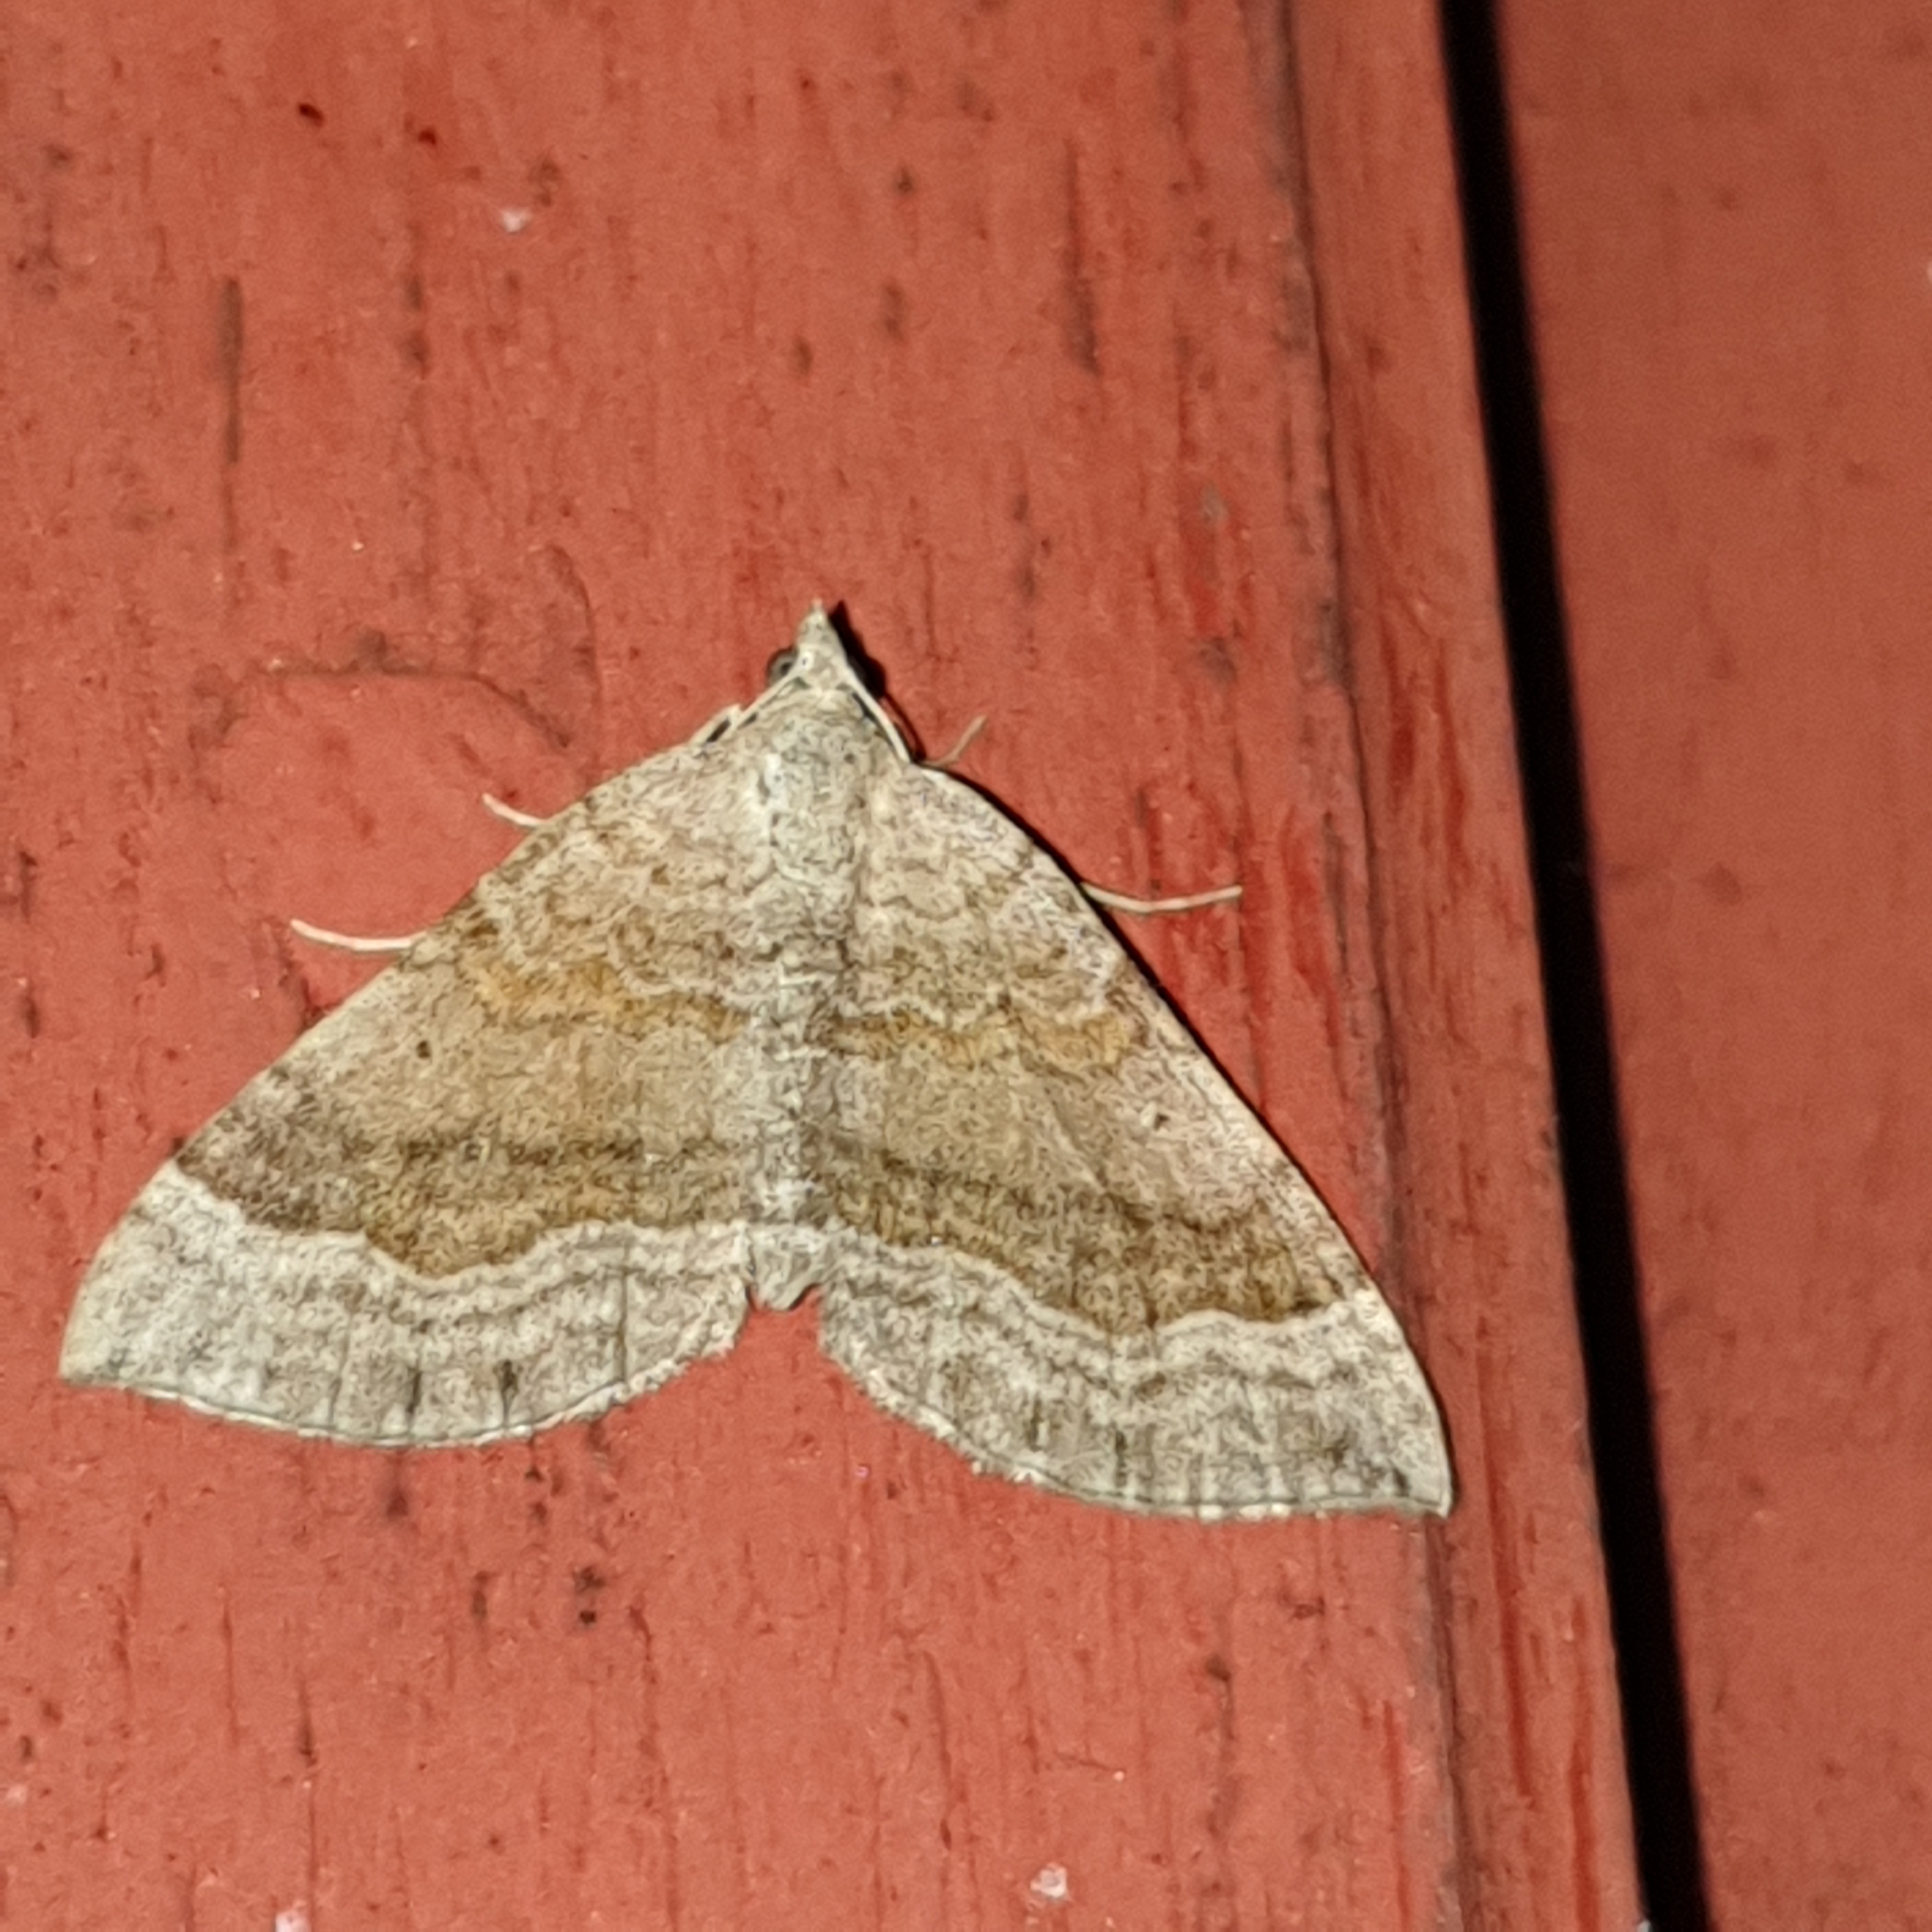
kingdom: Animalia
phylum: Arthropoda
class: Insecta
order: Lepidoptera
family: Geometridae
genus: Scotopteryx
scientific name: Scotopteryx chenopodiata
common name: Shaded broad-bar
